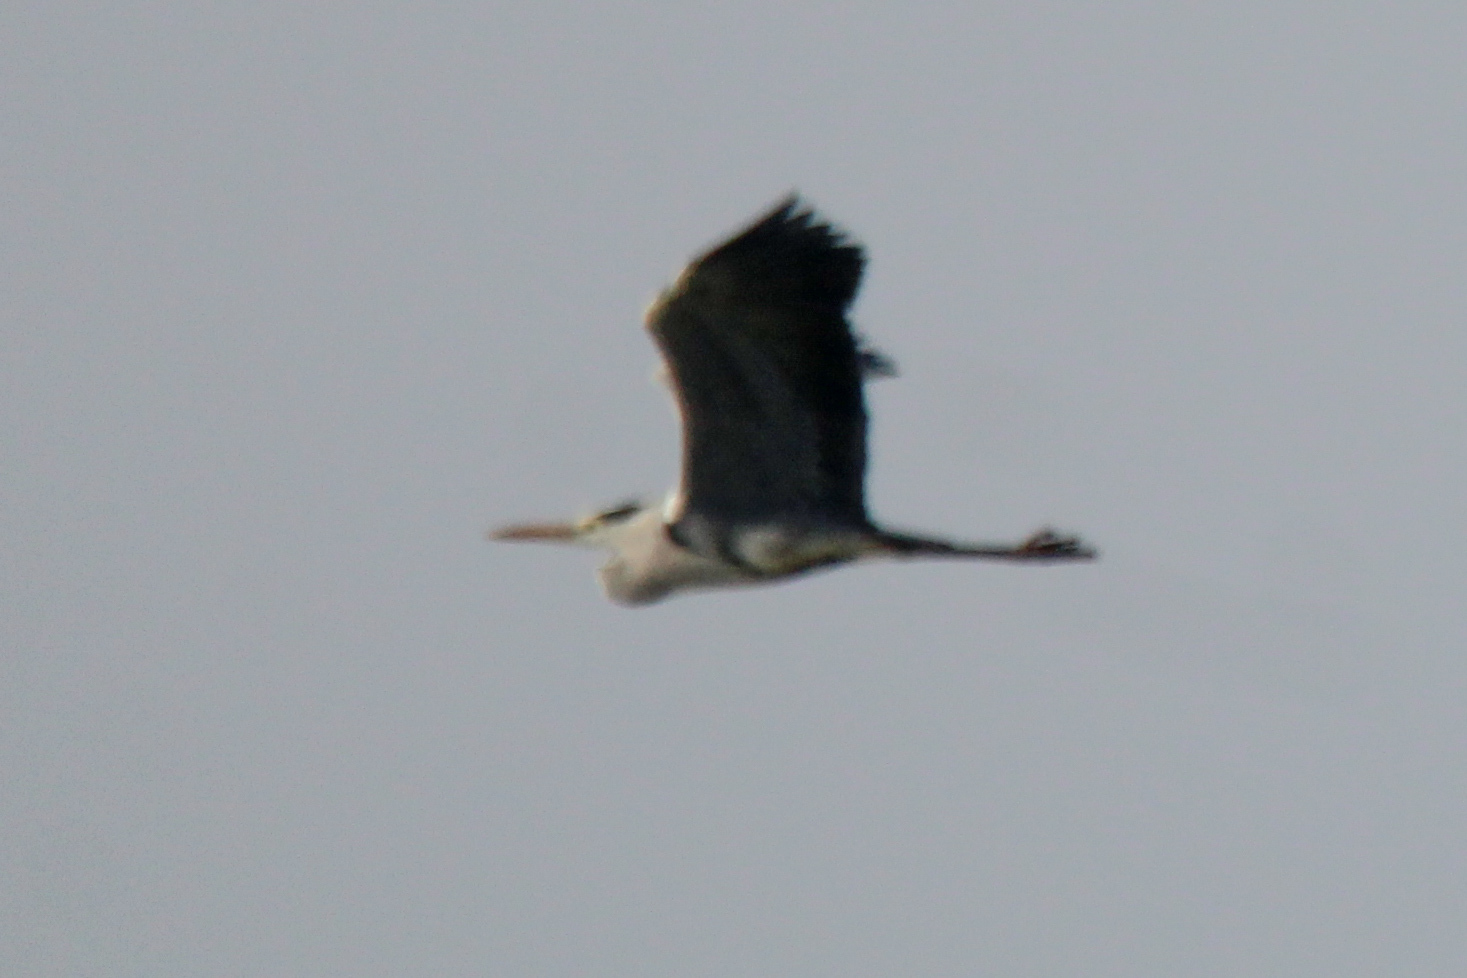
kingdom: Animalia
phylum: Chordata
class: Aves
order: Pelecaniformes
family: Ardeidae
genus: Ardea
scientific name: Ardea cinerea
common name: Grey heron
